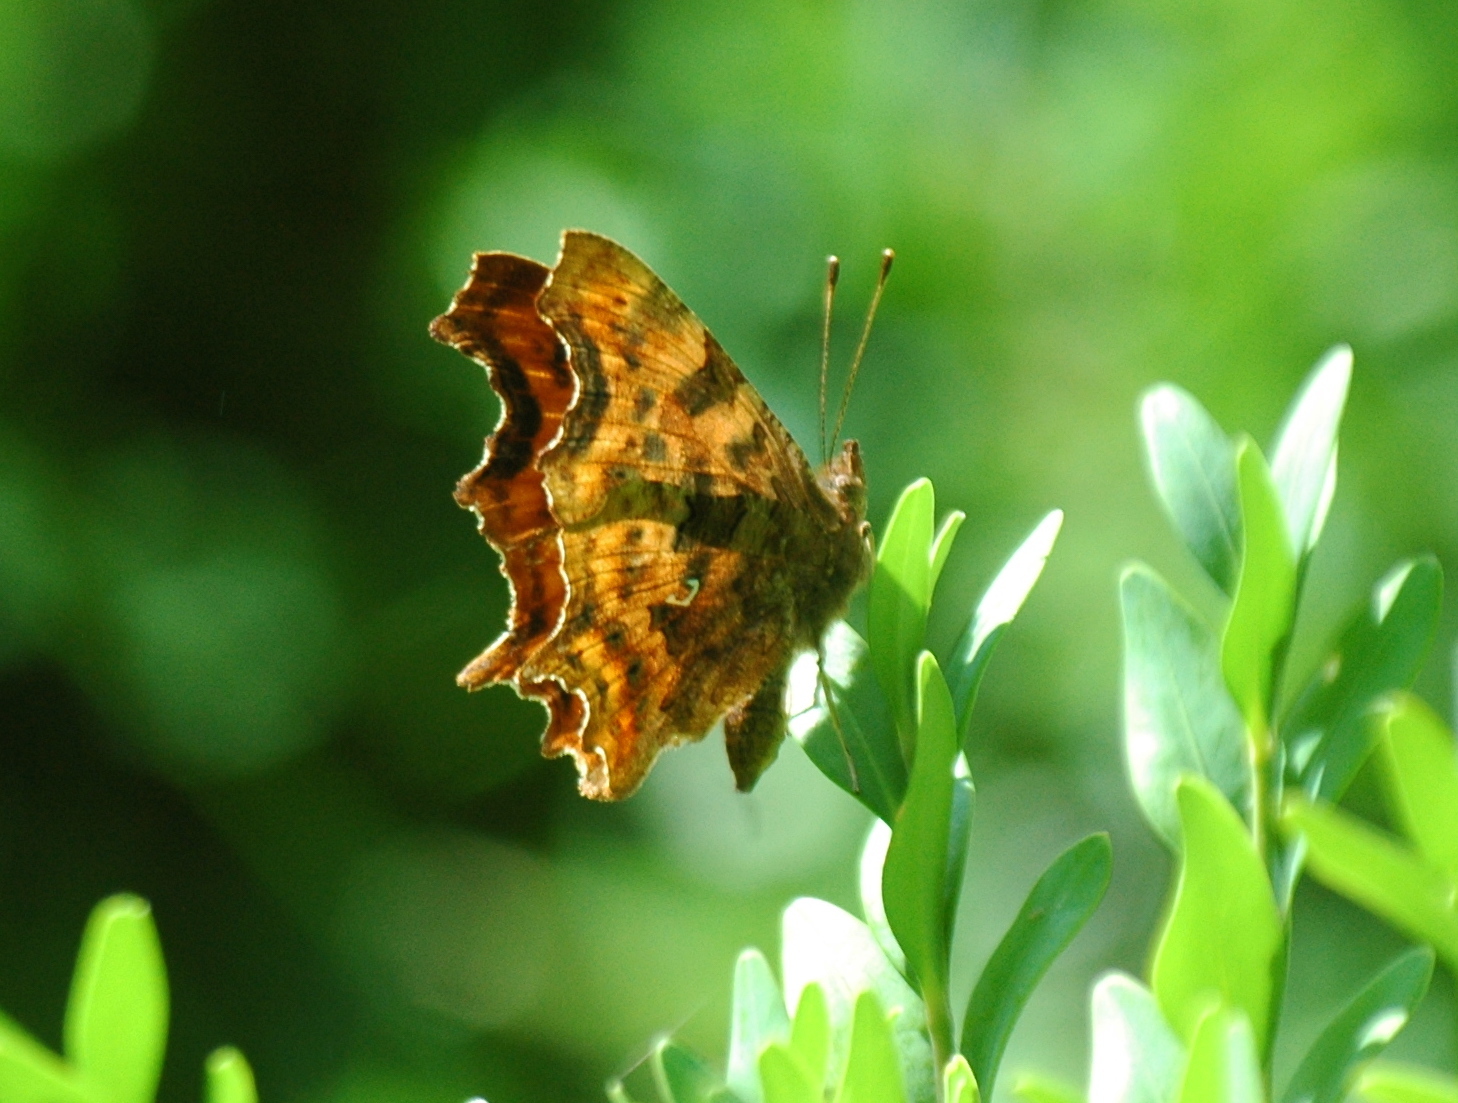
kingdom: Animalia
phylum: Arthropoda
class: Insecta
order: Lepidoptera
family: Nymphalidae
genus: Polygonia
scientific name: Polygonia c-album
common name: Comma
